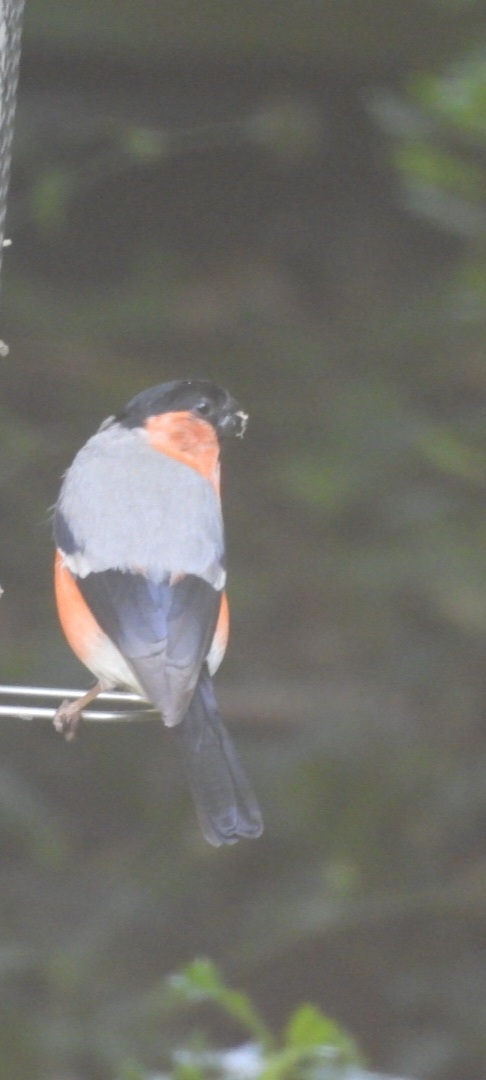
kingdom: Animalia
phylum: Chordata
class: Aves
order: Passeriformes
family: Fringillidae
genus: Pyrrhula
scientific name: Pyrrhula pyrrhula
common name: Eurasian bullfinch
